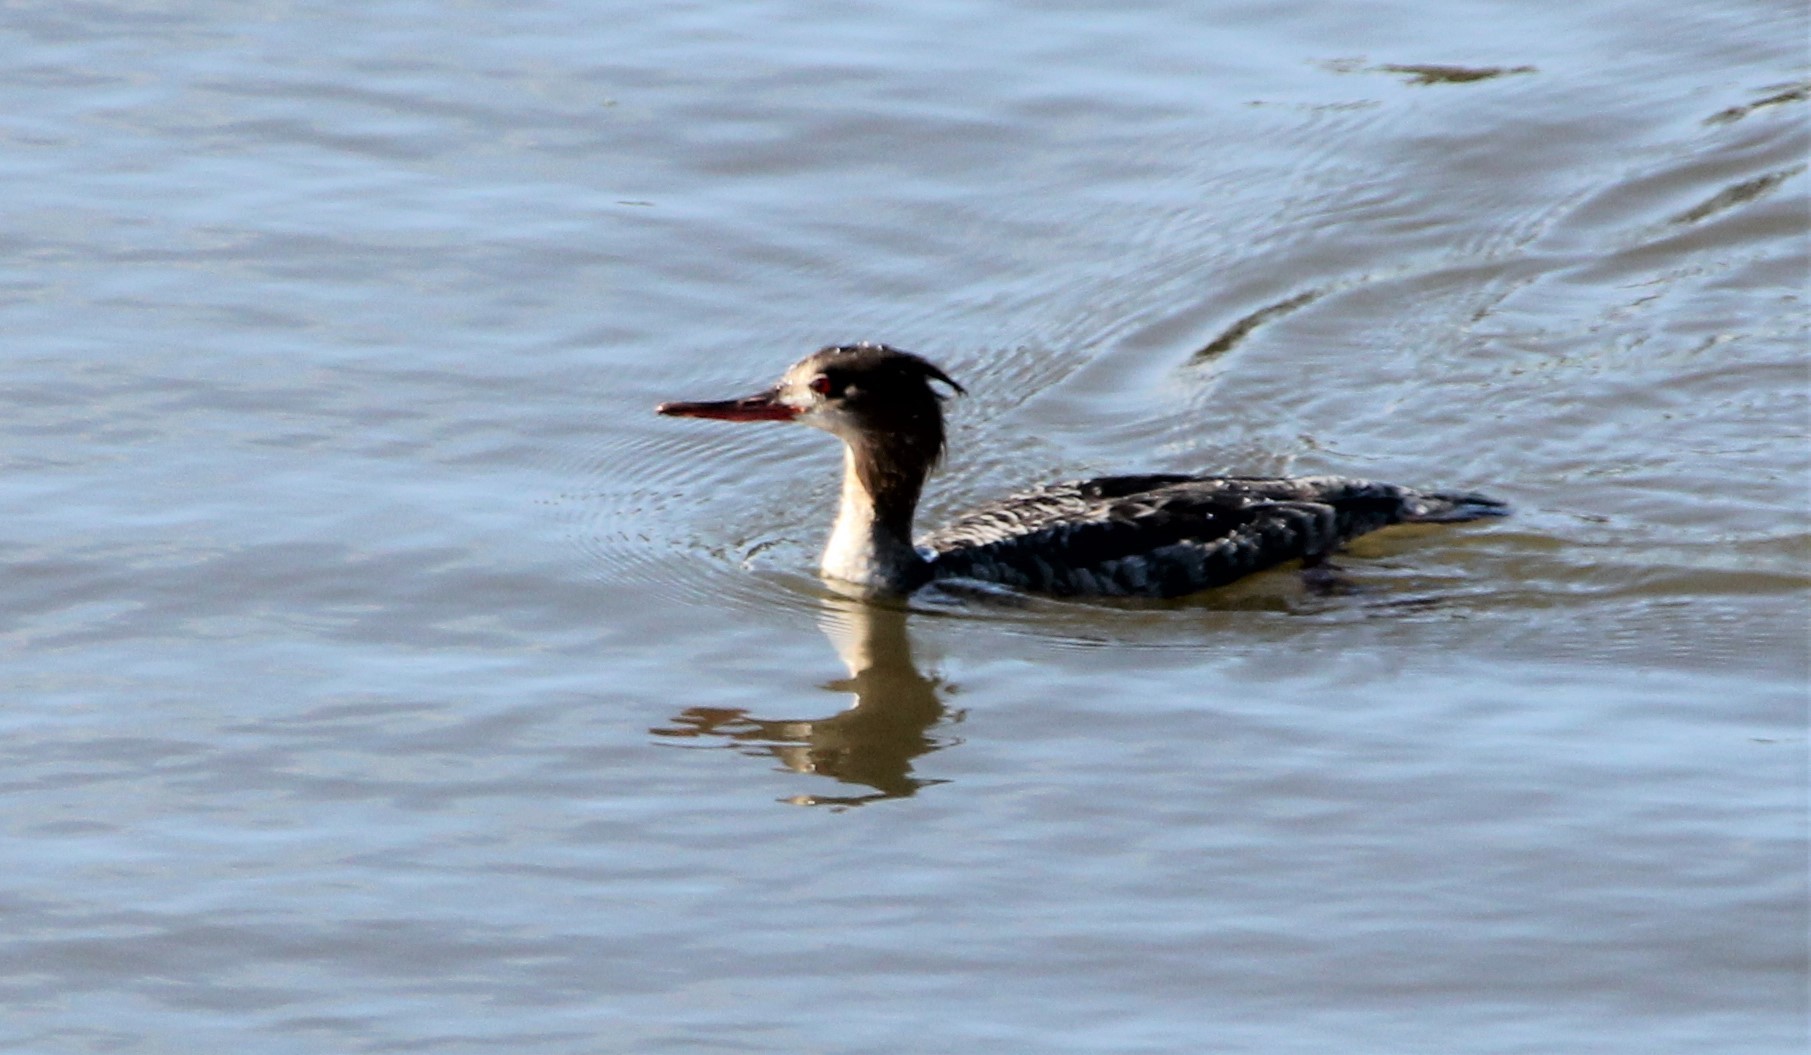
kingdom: Animalia
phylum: Chordata
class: Aves
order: Anseriformes
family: Anatidae
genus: Mergus
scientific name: Mergus serrator
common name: Red-breasted merganser
